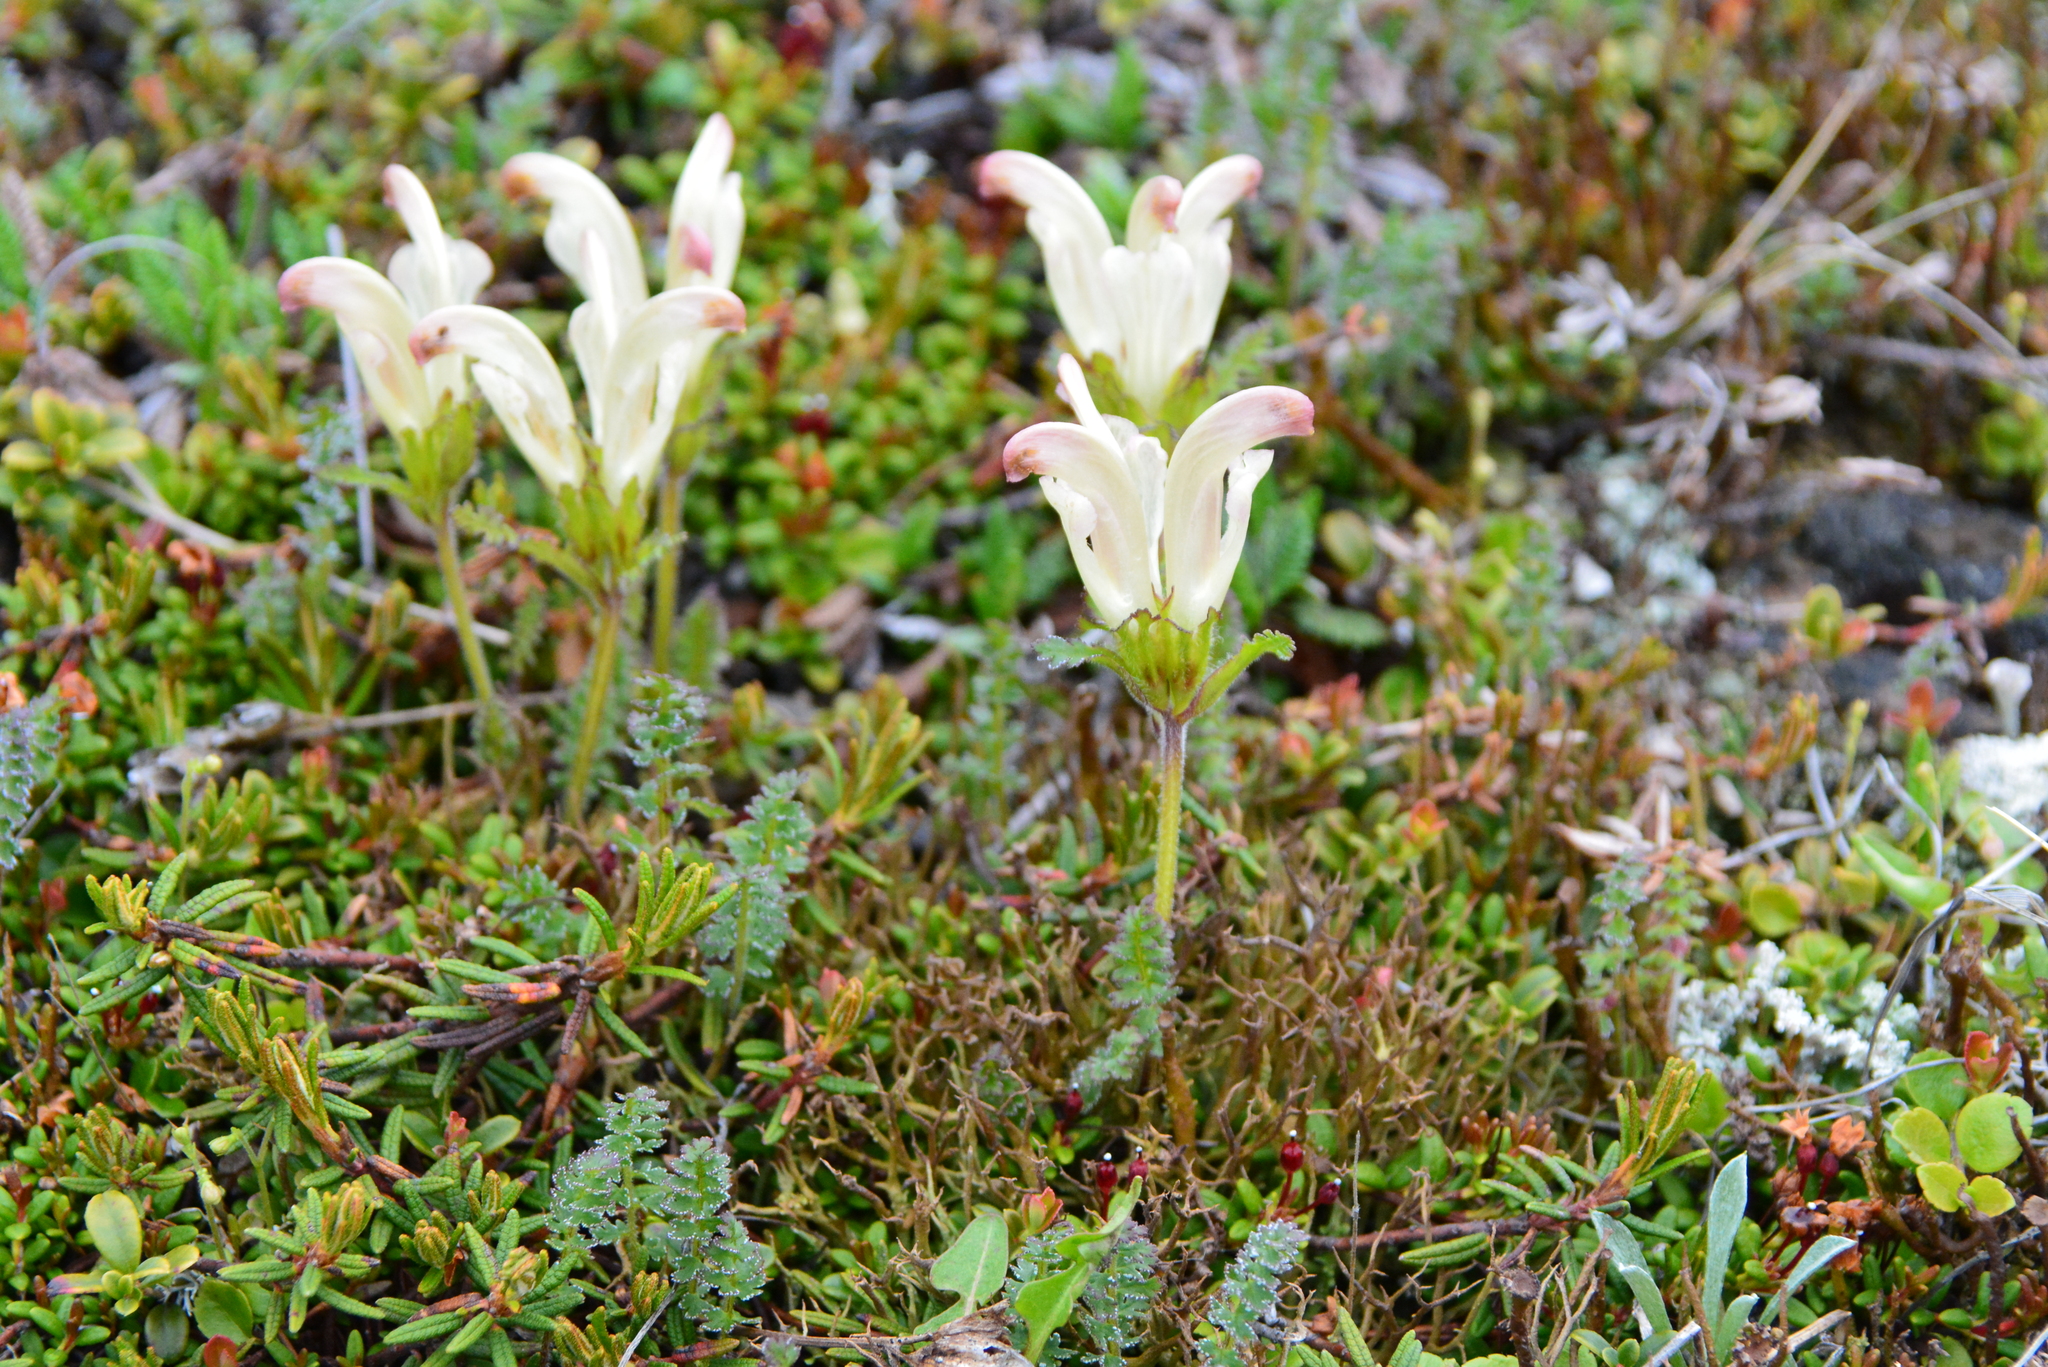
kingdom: Plantae
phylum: Tracheophyta
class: Magnoliopsida
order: Lamiales
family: Orobanchaceae
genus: Pedicularis
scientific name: Pedicularis capitata
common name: Capitate lousewort
